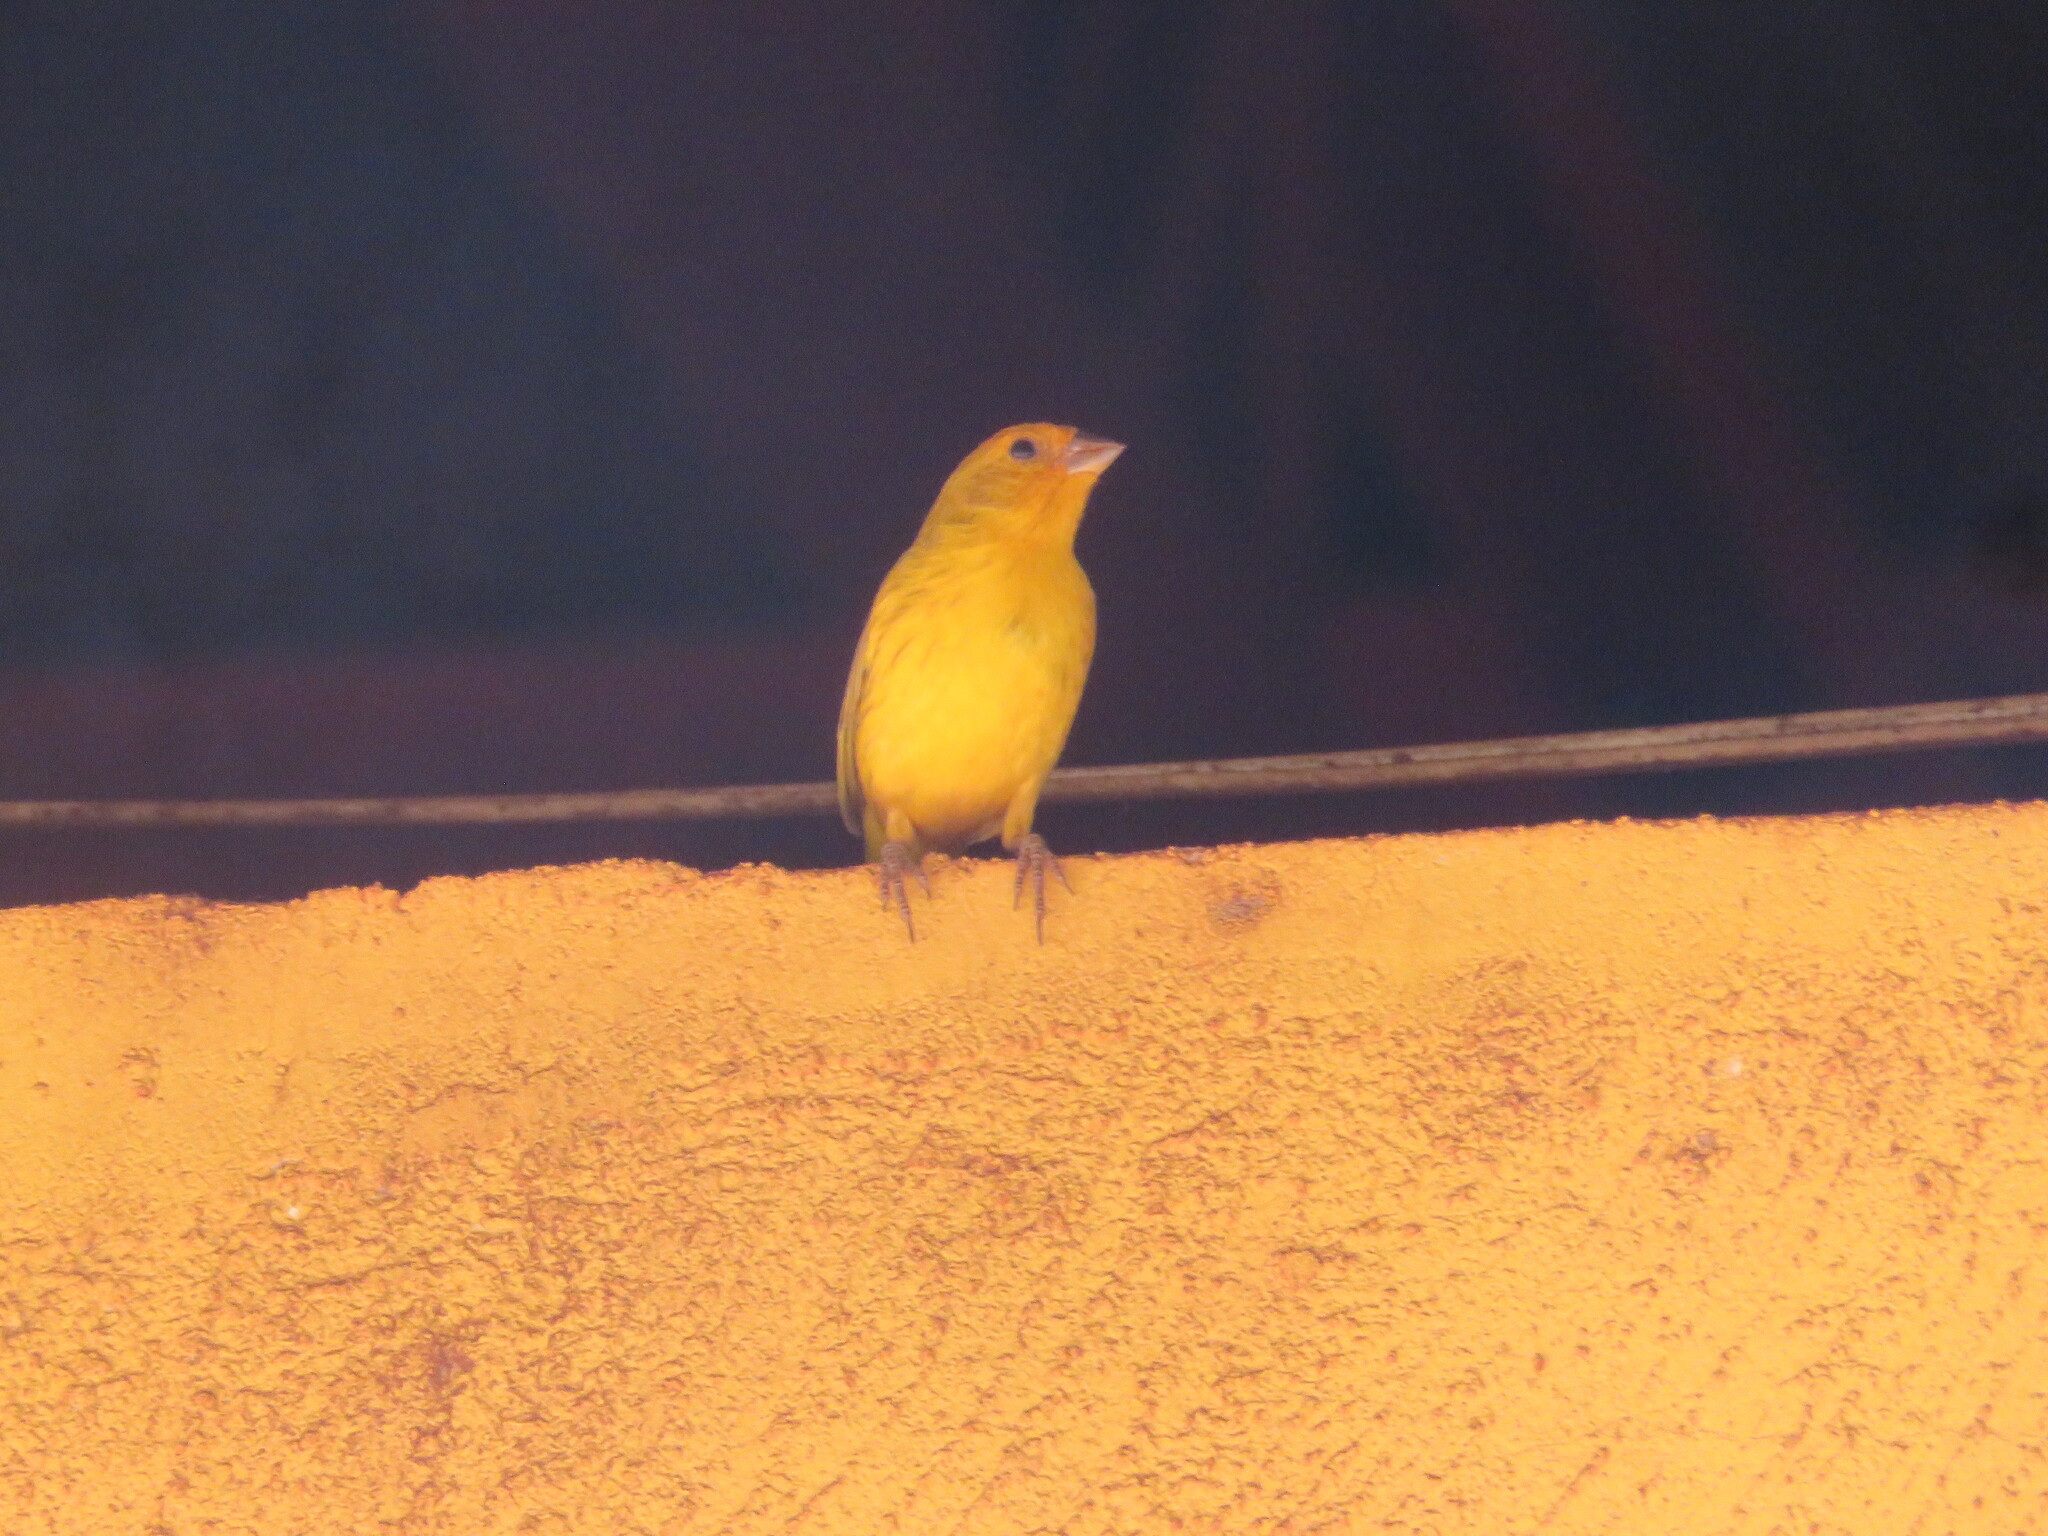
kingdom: Animalia
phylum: Chordata
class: Aves
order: Passeriformes
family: Thraupidae
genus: Sicalis
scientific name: Sicalis flaveola
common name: Saffron finch
